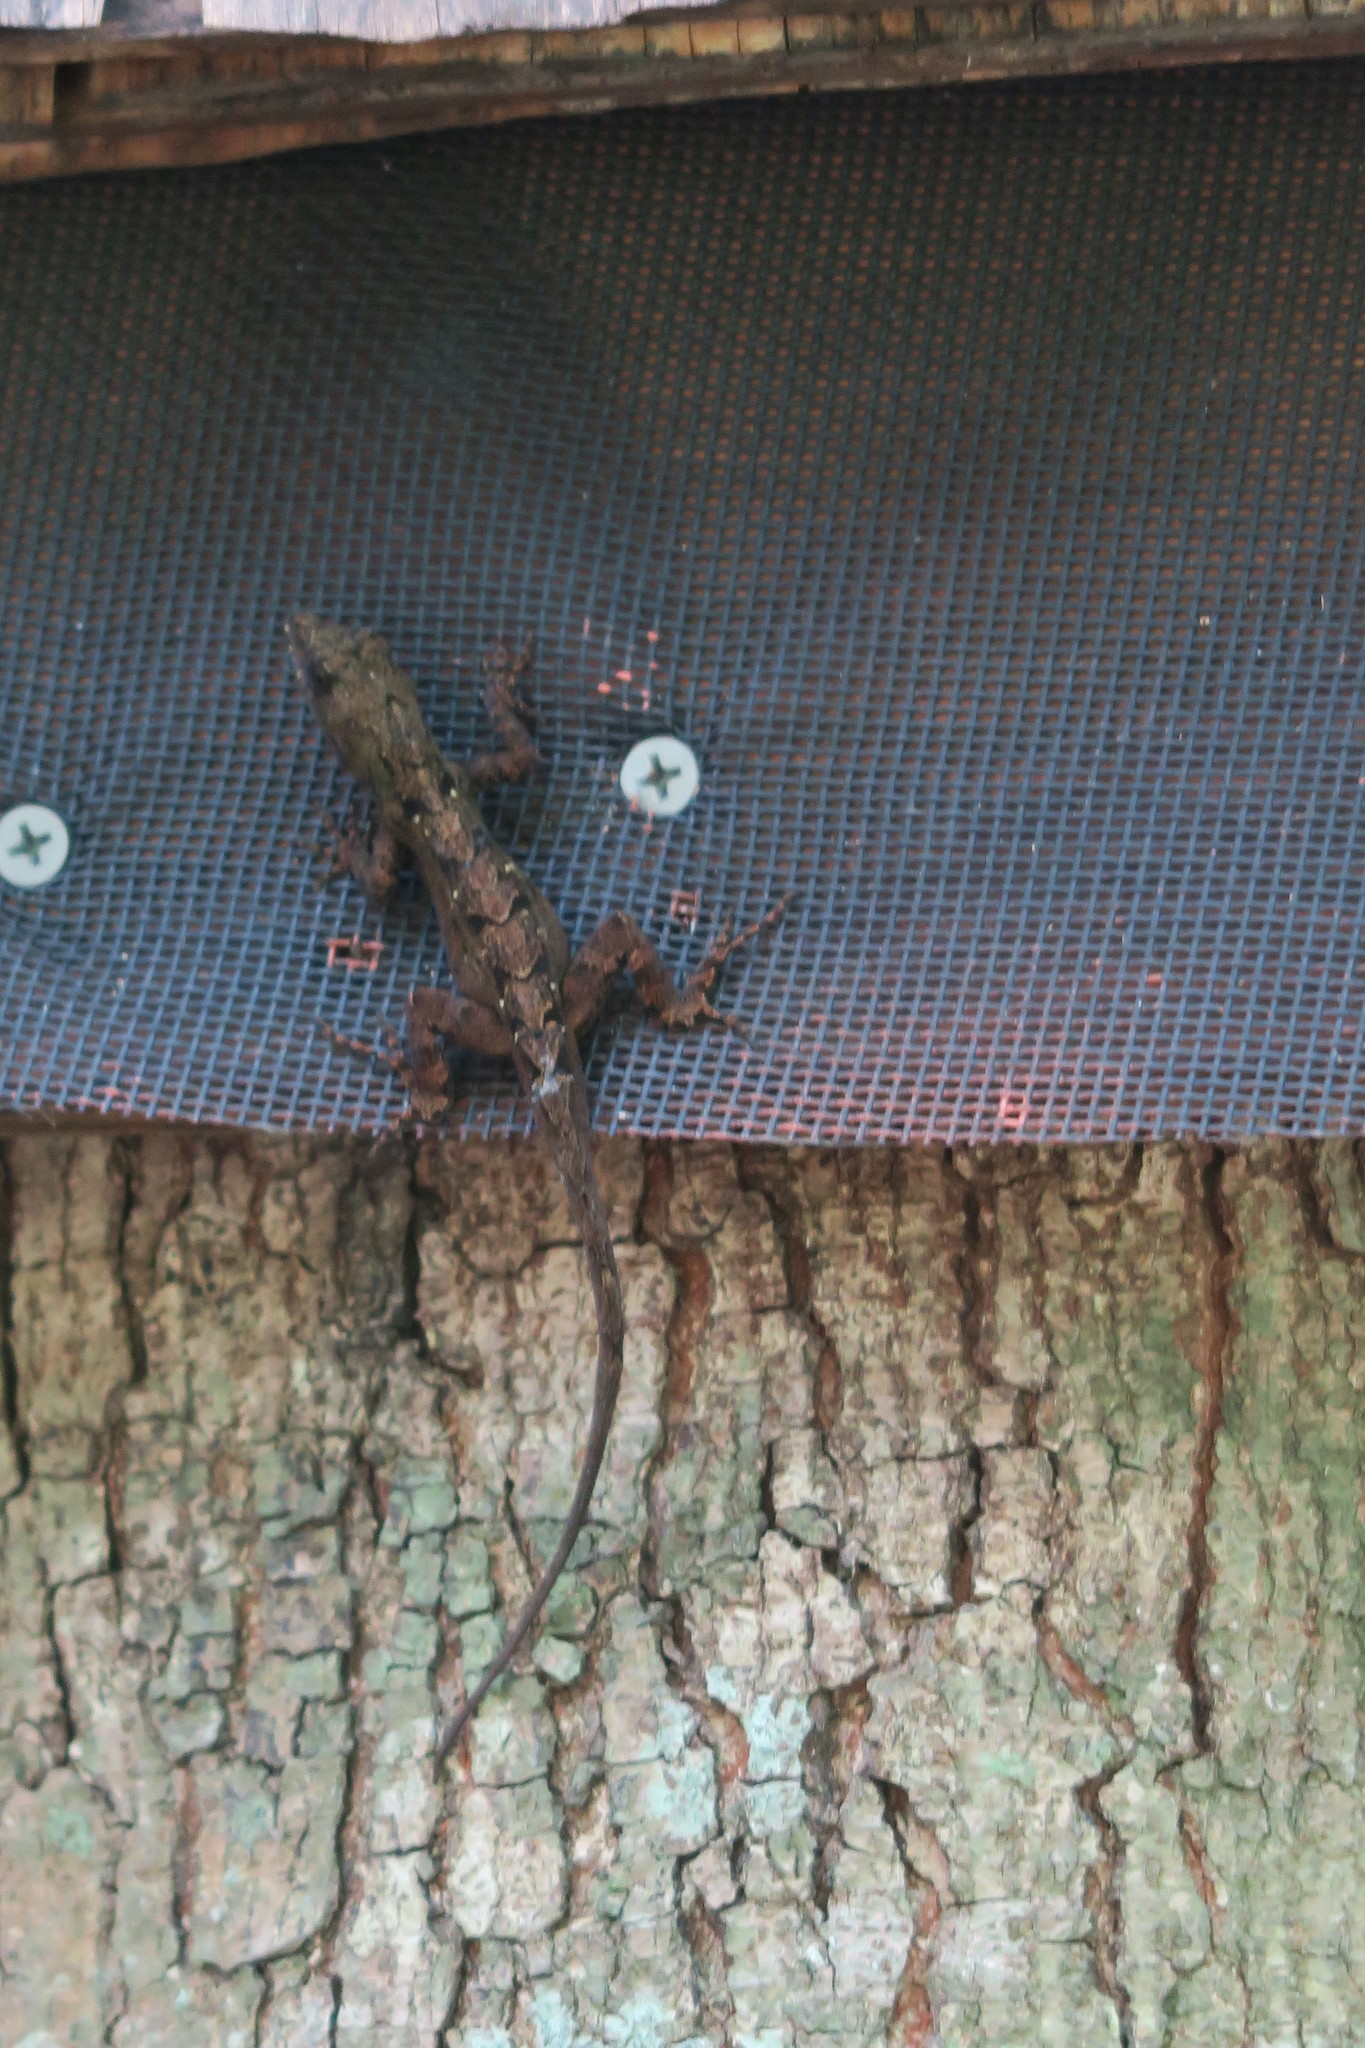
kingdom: Animalia
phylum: Chordata
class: Squamata
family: Dactyloidae
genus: Anolis
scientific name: Anolis sagrei
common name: Brown anole
